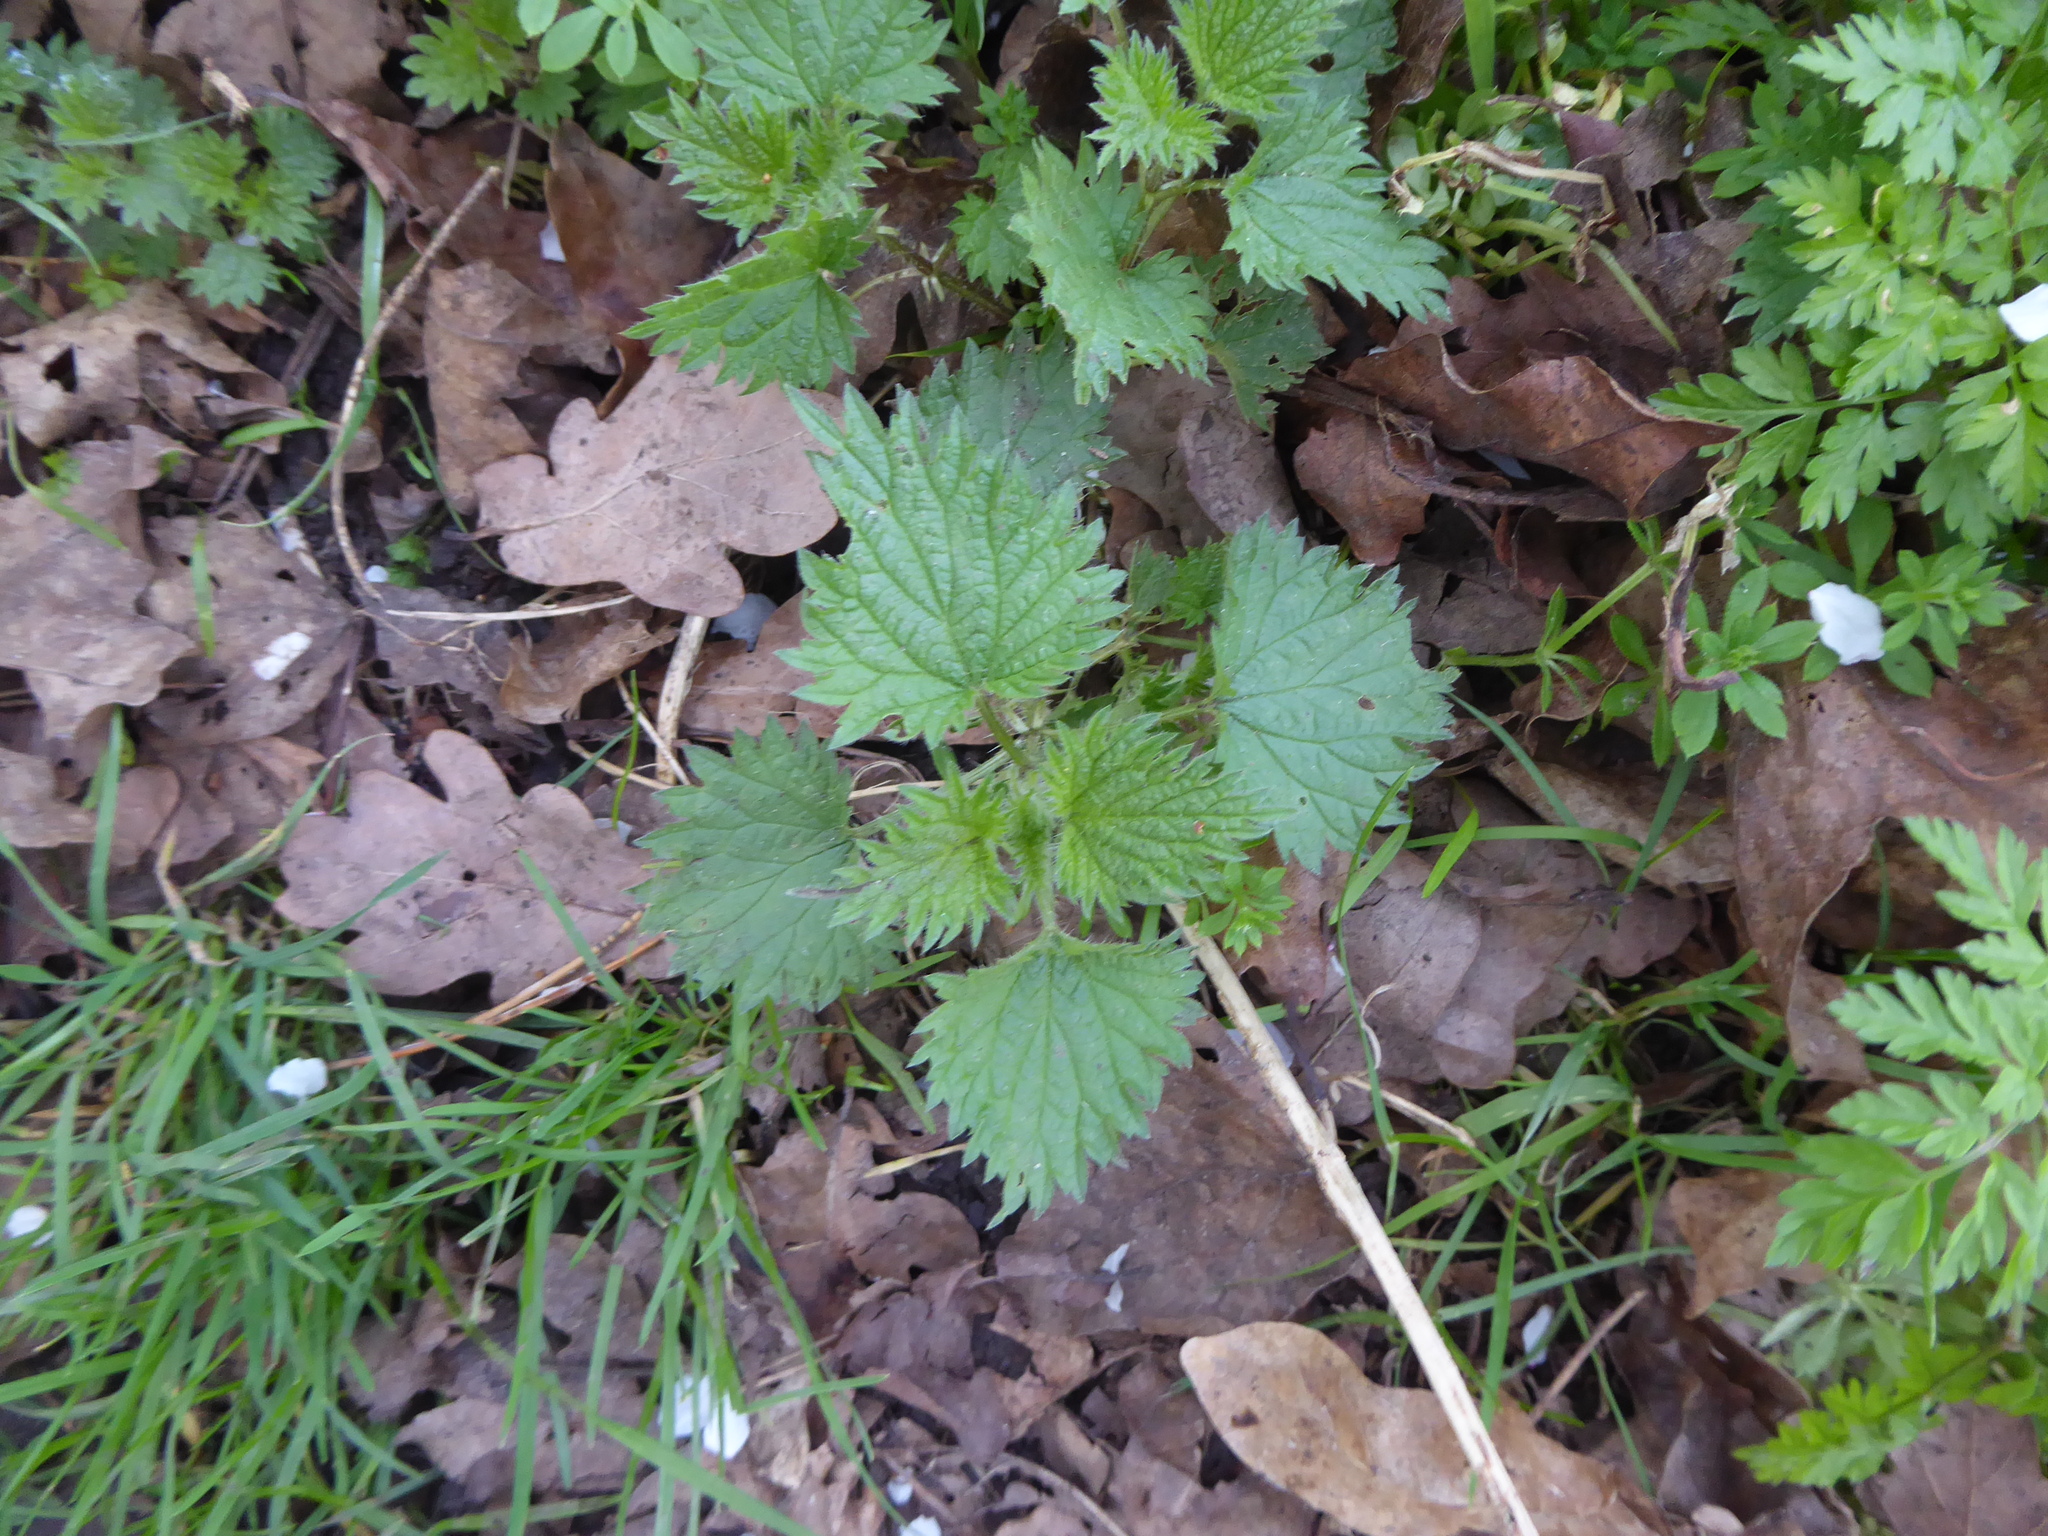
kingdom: Plantae
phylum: Tracheophyta
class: Magnoliopsida
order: Rosales
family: Urticaceae
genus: Urtica
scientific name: Urtica dioica
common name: Common nettle
